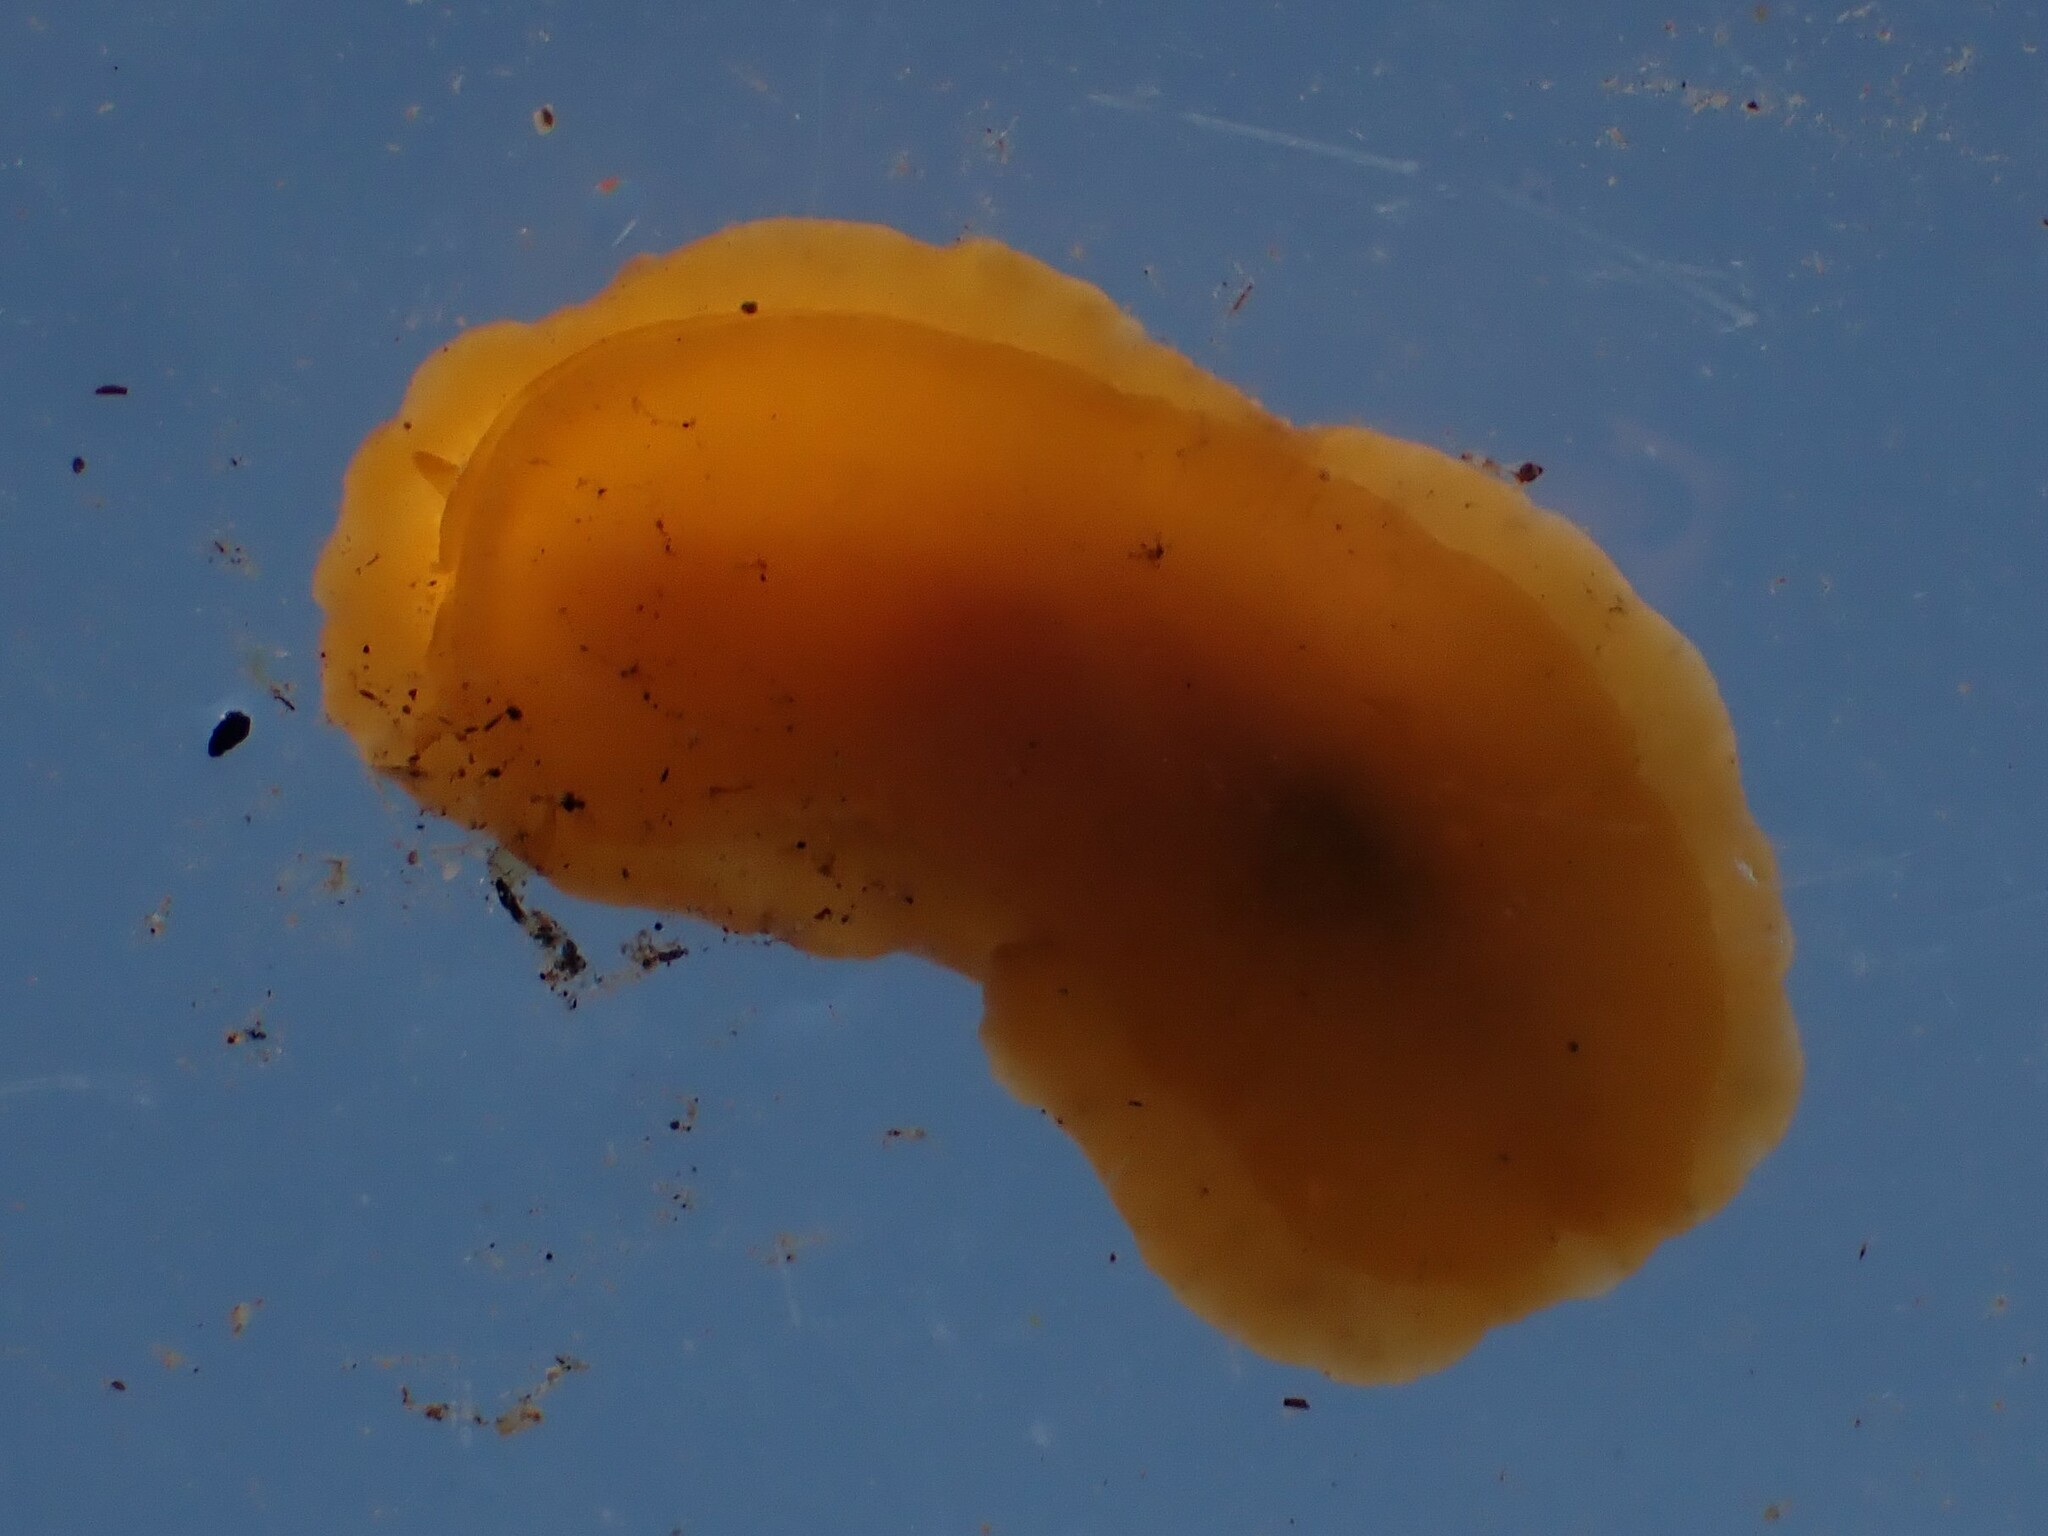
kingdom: Animalia
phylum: Mollusca
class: Gastropoda
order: Nudibranchia
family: Discodorididae
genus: Geitodoris
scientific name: Geitodoris heathi
